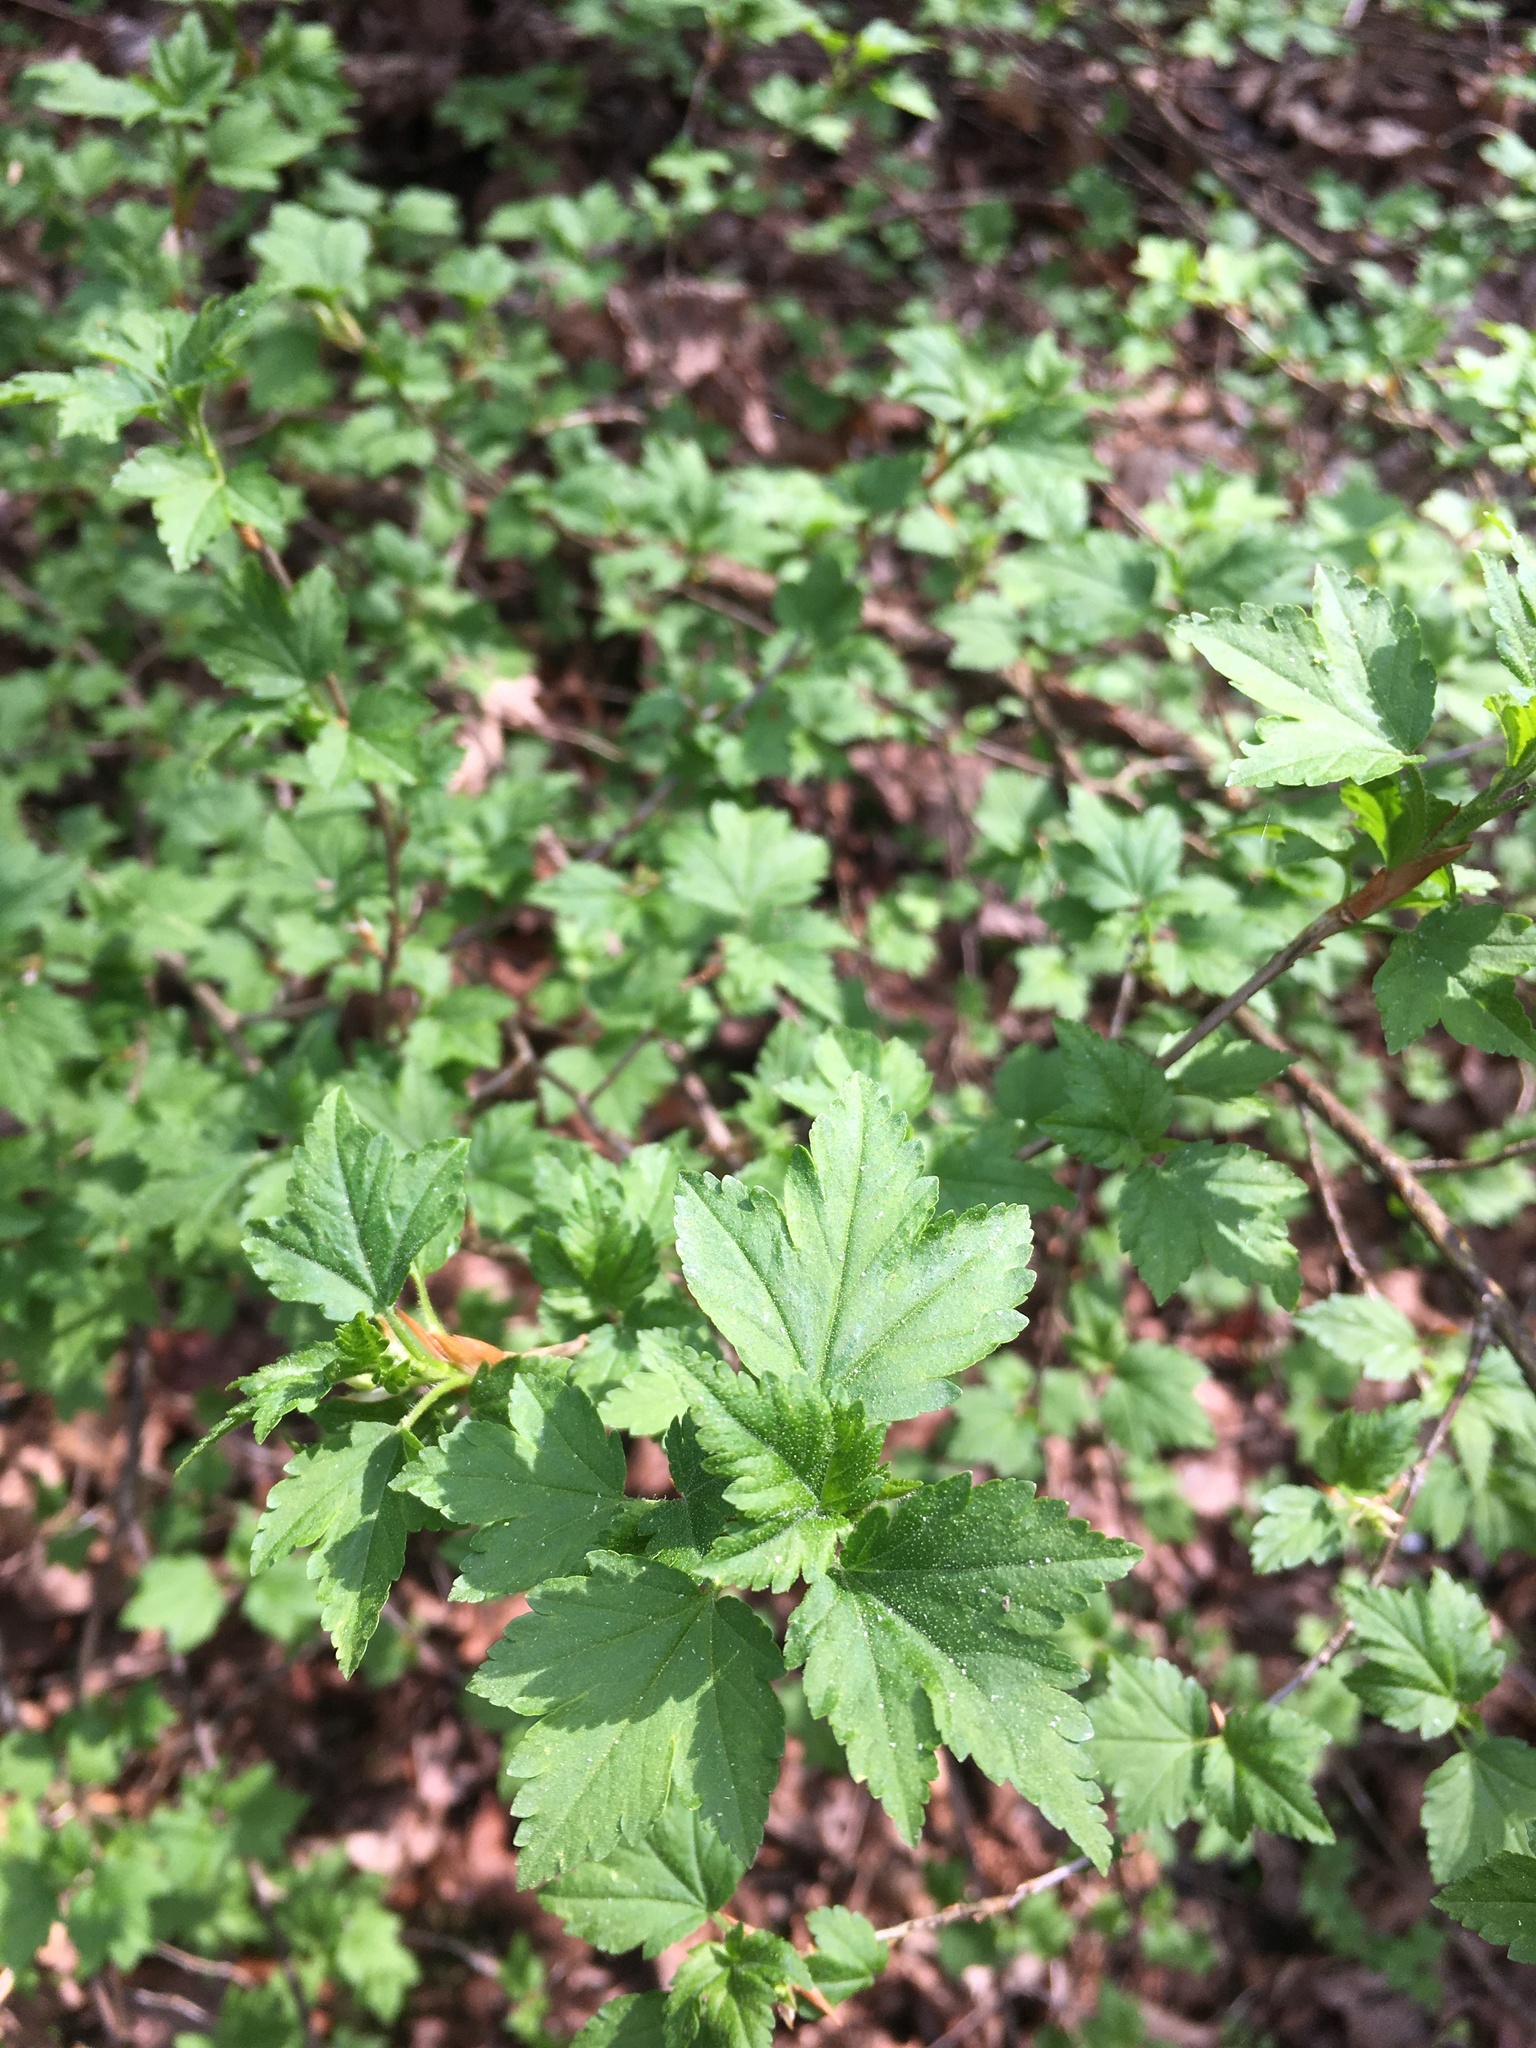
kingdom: Plantae
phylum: Tracheophyta
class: Magnoliopsida
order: Saxifragales
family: Grossulariaceae
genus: Ribes
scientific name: Ribes alpinum
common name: Alpine currant
